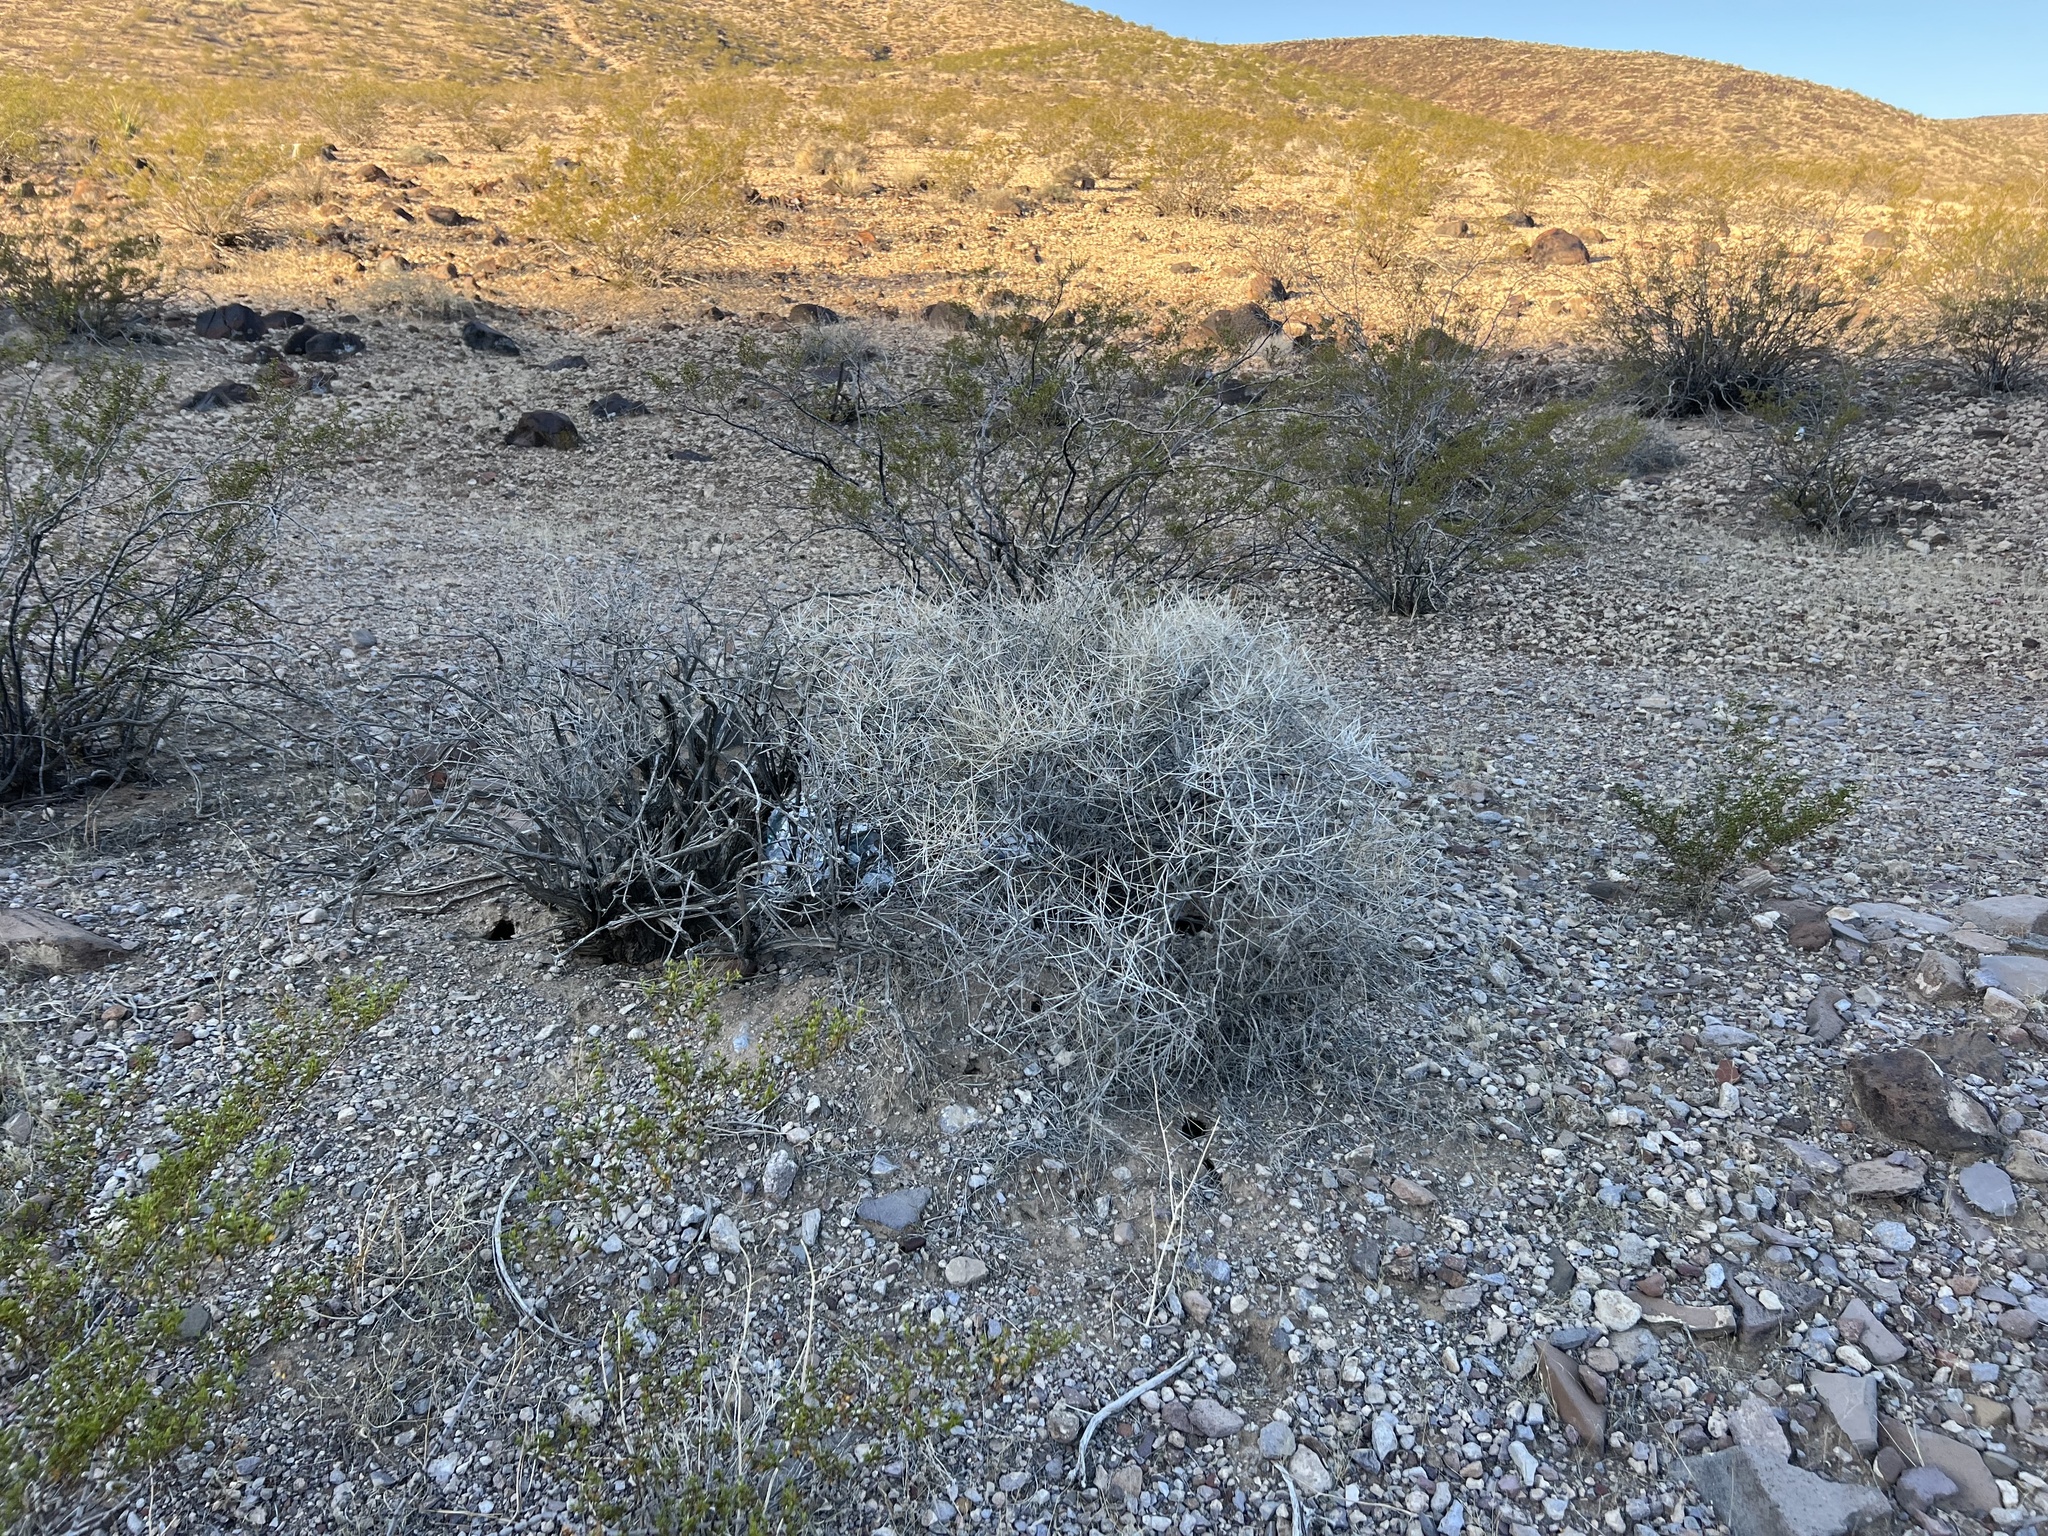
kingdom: Plantae
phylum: Tracheophyta
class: Gnetopsida
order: Ephedrales
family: Ephedraceae
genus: Ephedra
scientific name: Ephedra nevadensis
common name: Gray ephedra
